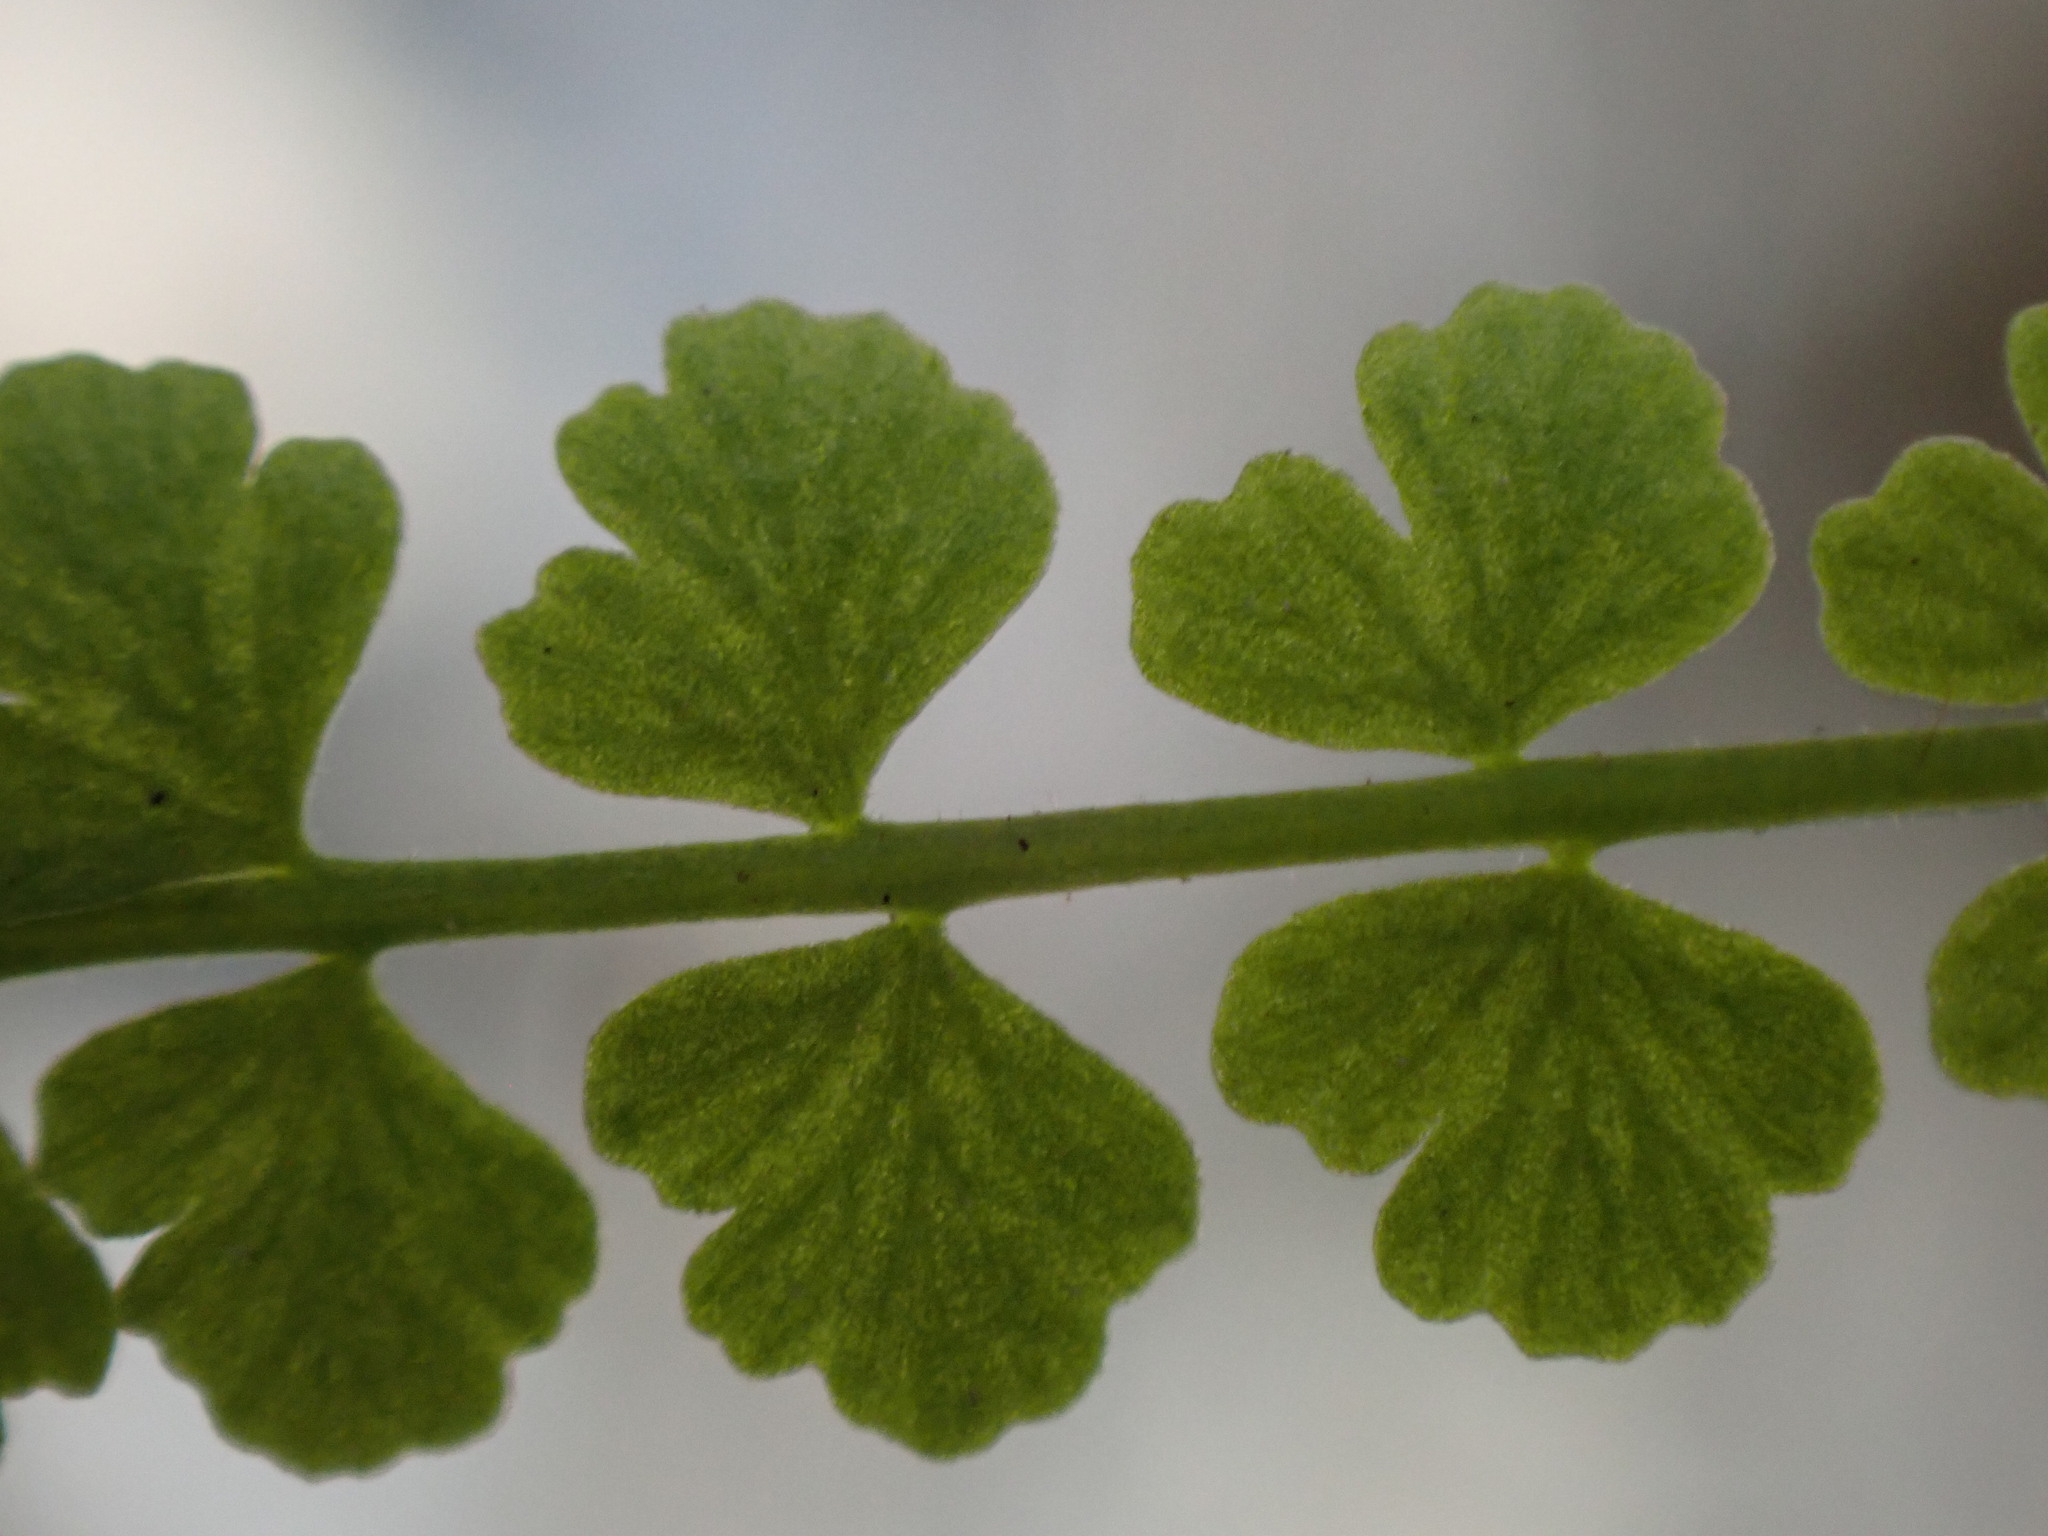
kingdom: Plantae
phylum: Tracheophyta
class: Polypodiopsida
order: Polypodiales
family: Woodsiaceae
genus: Woodsia
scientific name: Woodsia glabella
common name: Smooth woodsia
